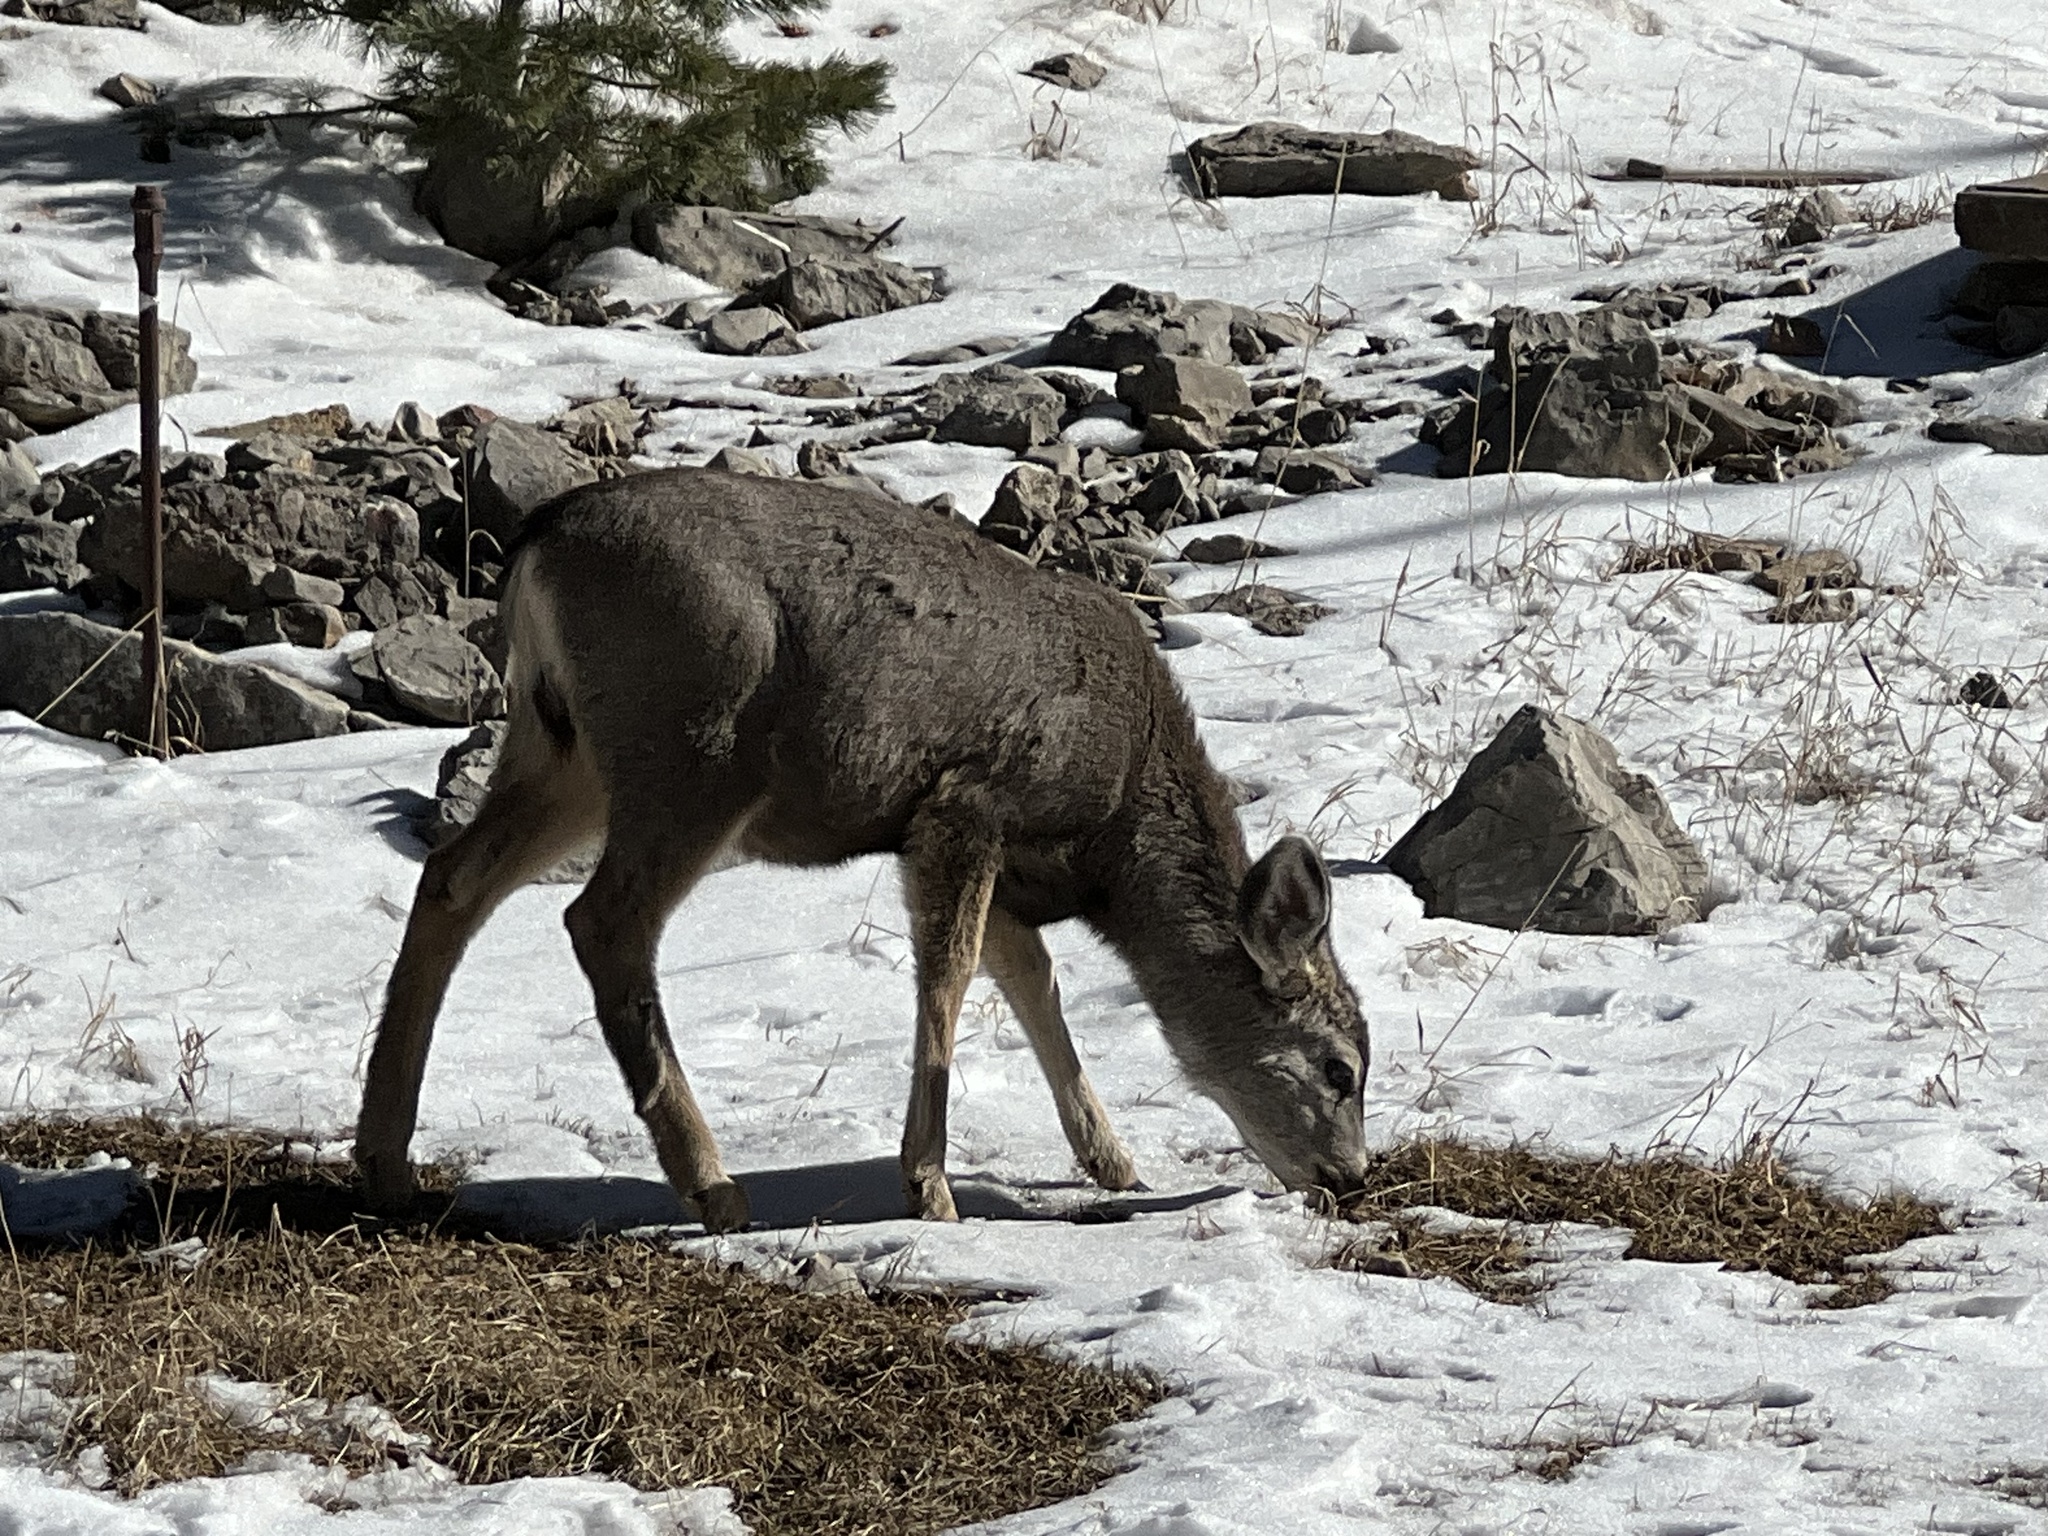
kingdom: Animalia
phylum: Chordata
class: Mammalia
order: Artiodactyla
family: Cervidae
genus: Odocoileus
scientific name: Odocoileus hemionus
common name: Mule deer
